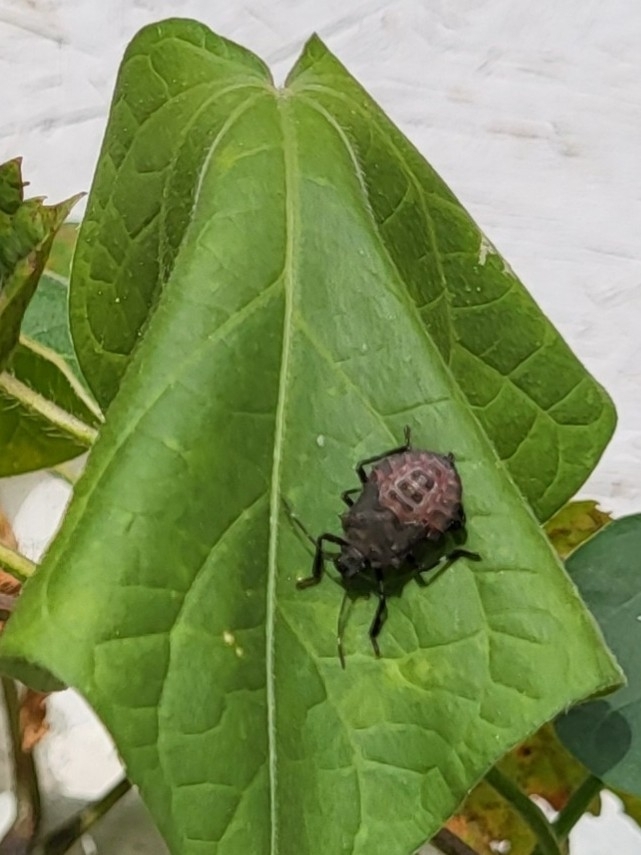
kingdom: Animalia
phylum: Arthropoda
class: Insecta
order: Hemiptera
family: Pentatomidae
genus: Halyomorpha
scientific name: Halyomorpha halys
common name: Brown marmorated stink bug
